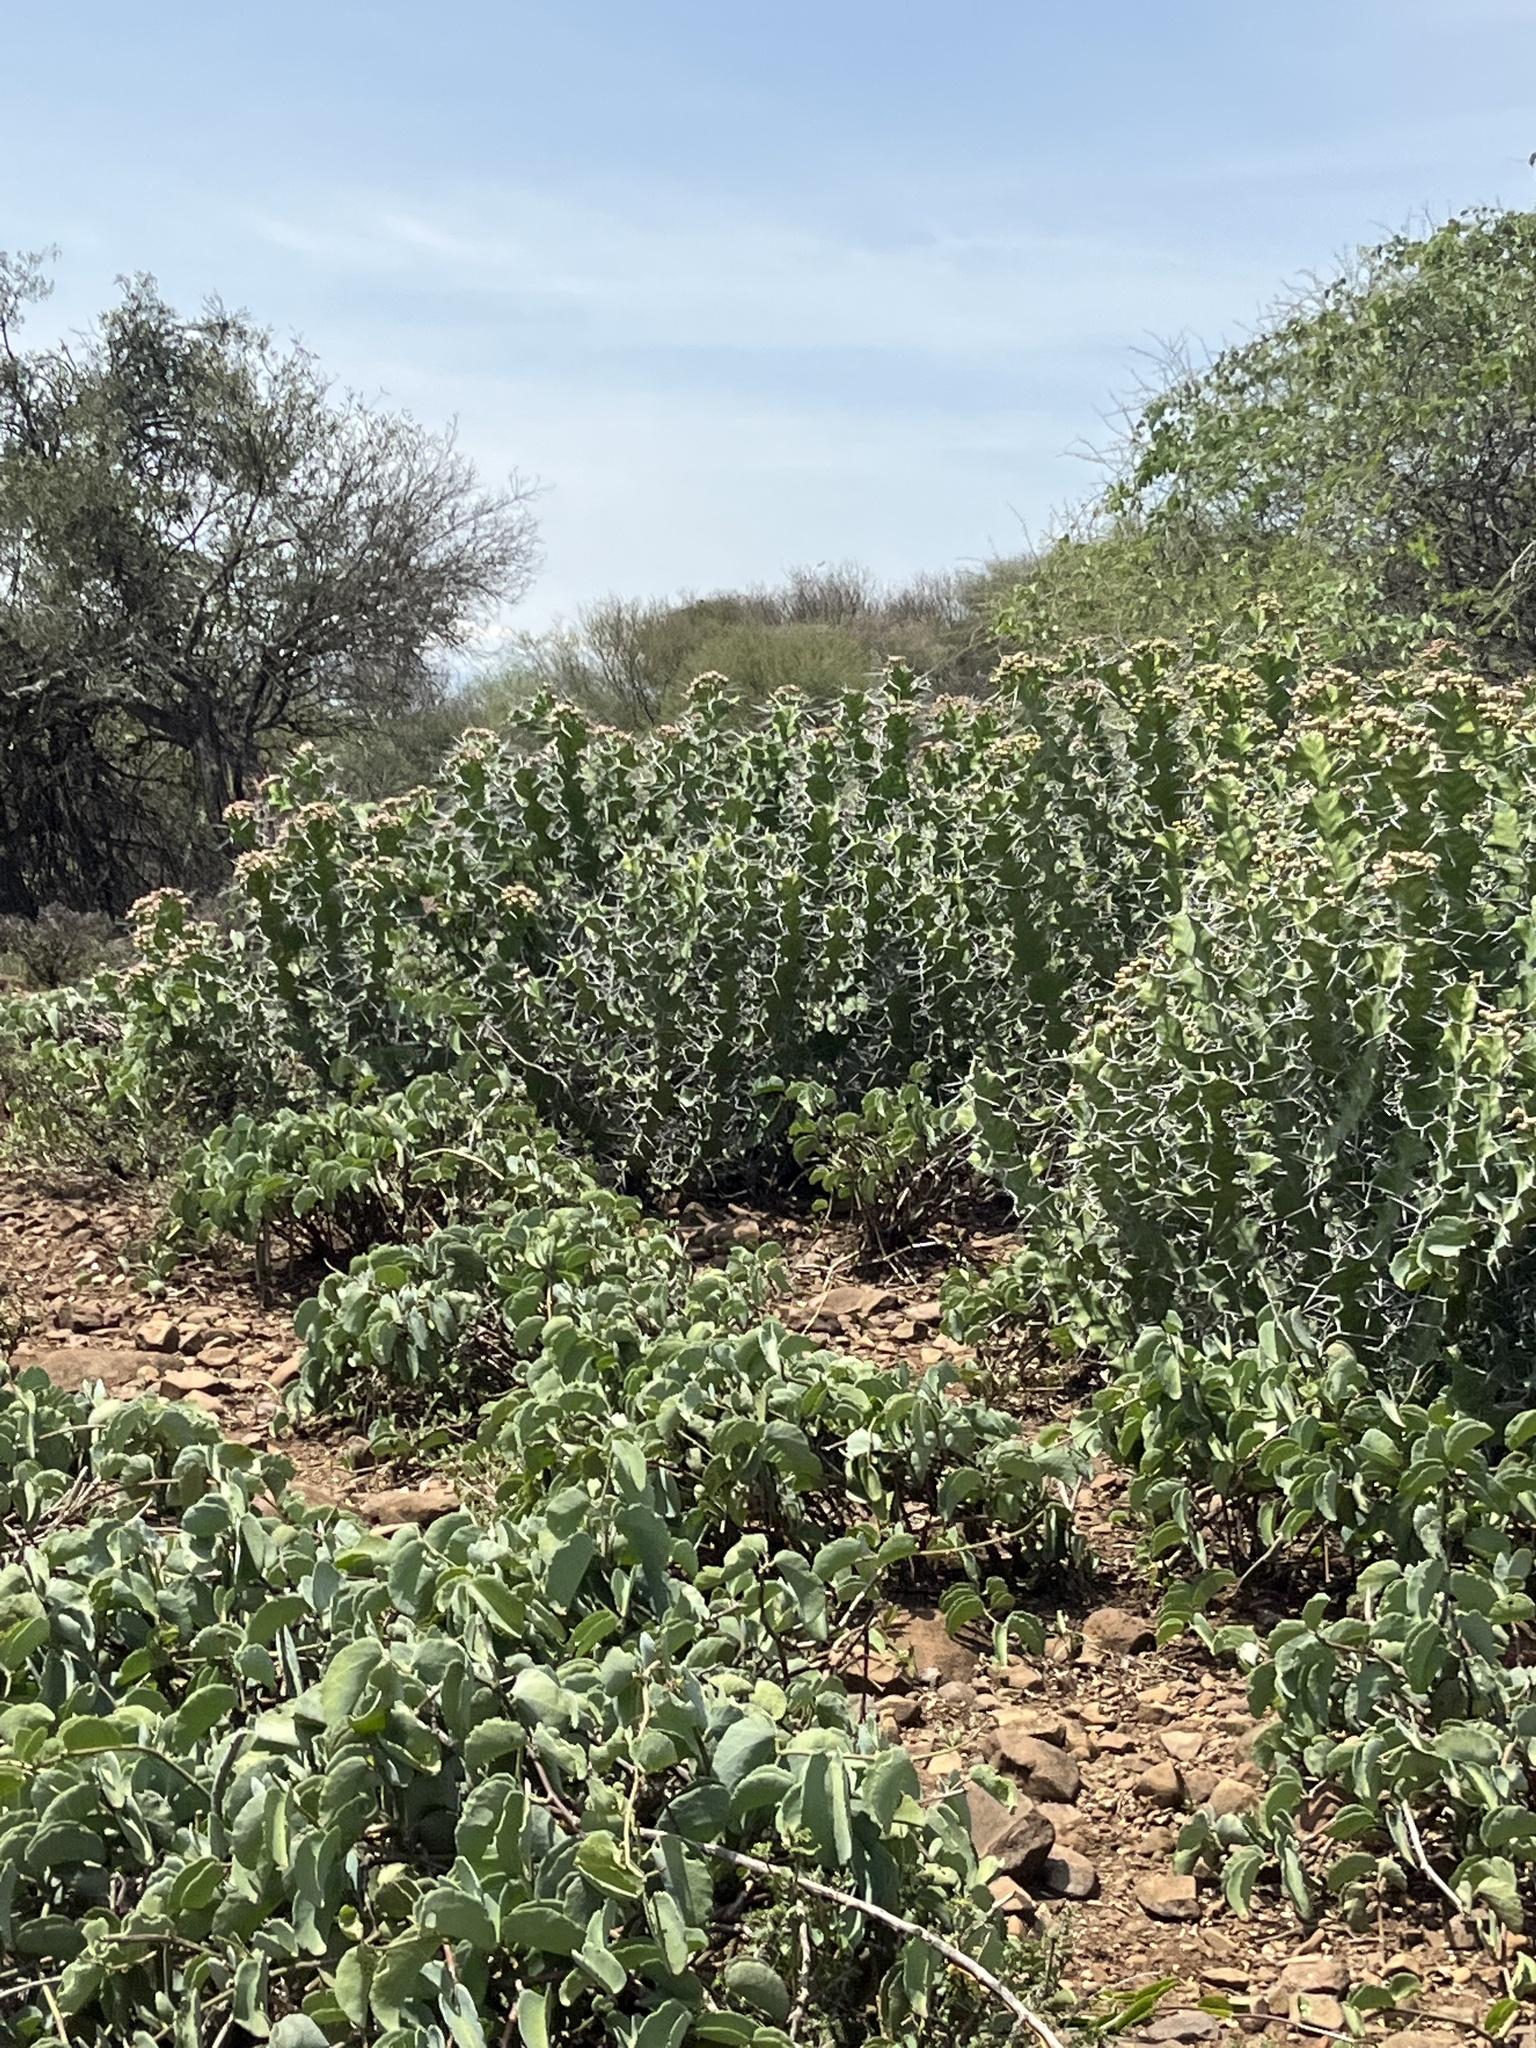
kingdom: Plantae
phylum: Tracheophyta
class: Magnoliopsida
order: Malpighiales
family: Euphorbiaceae
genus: Euphorbia
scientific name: Euphorbia breviarticulata
